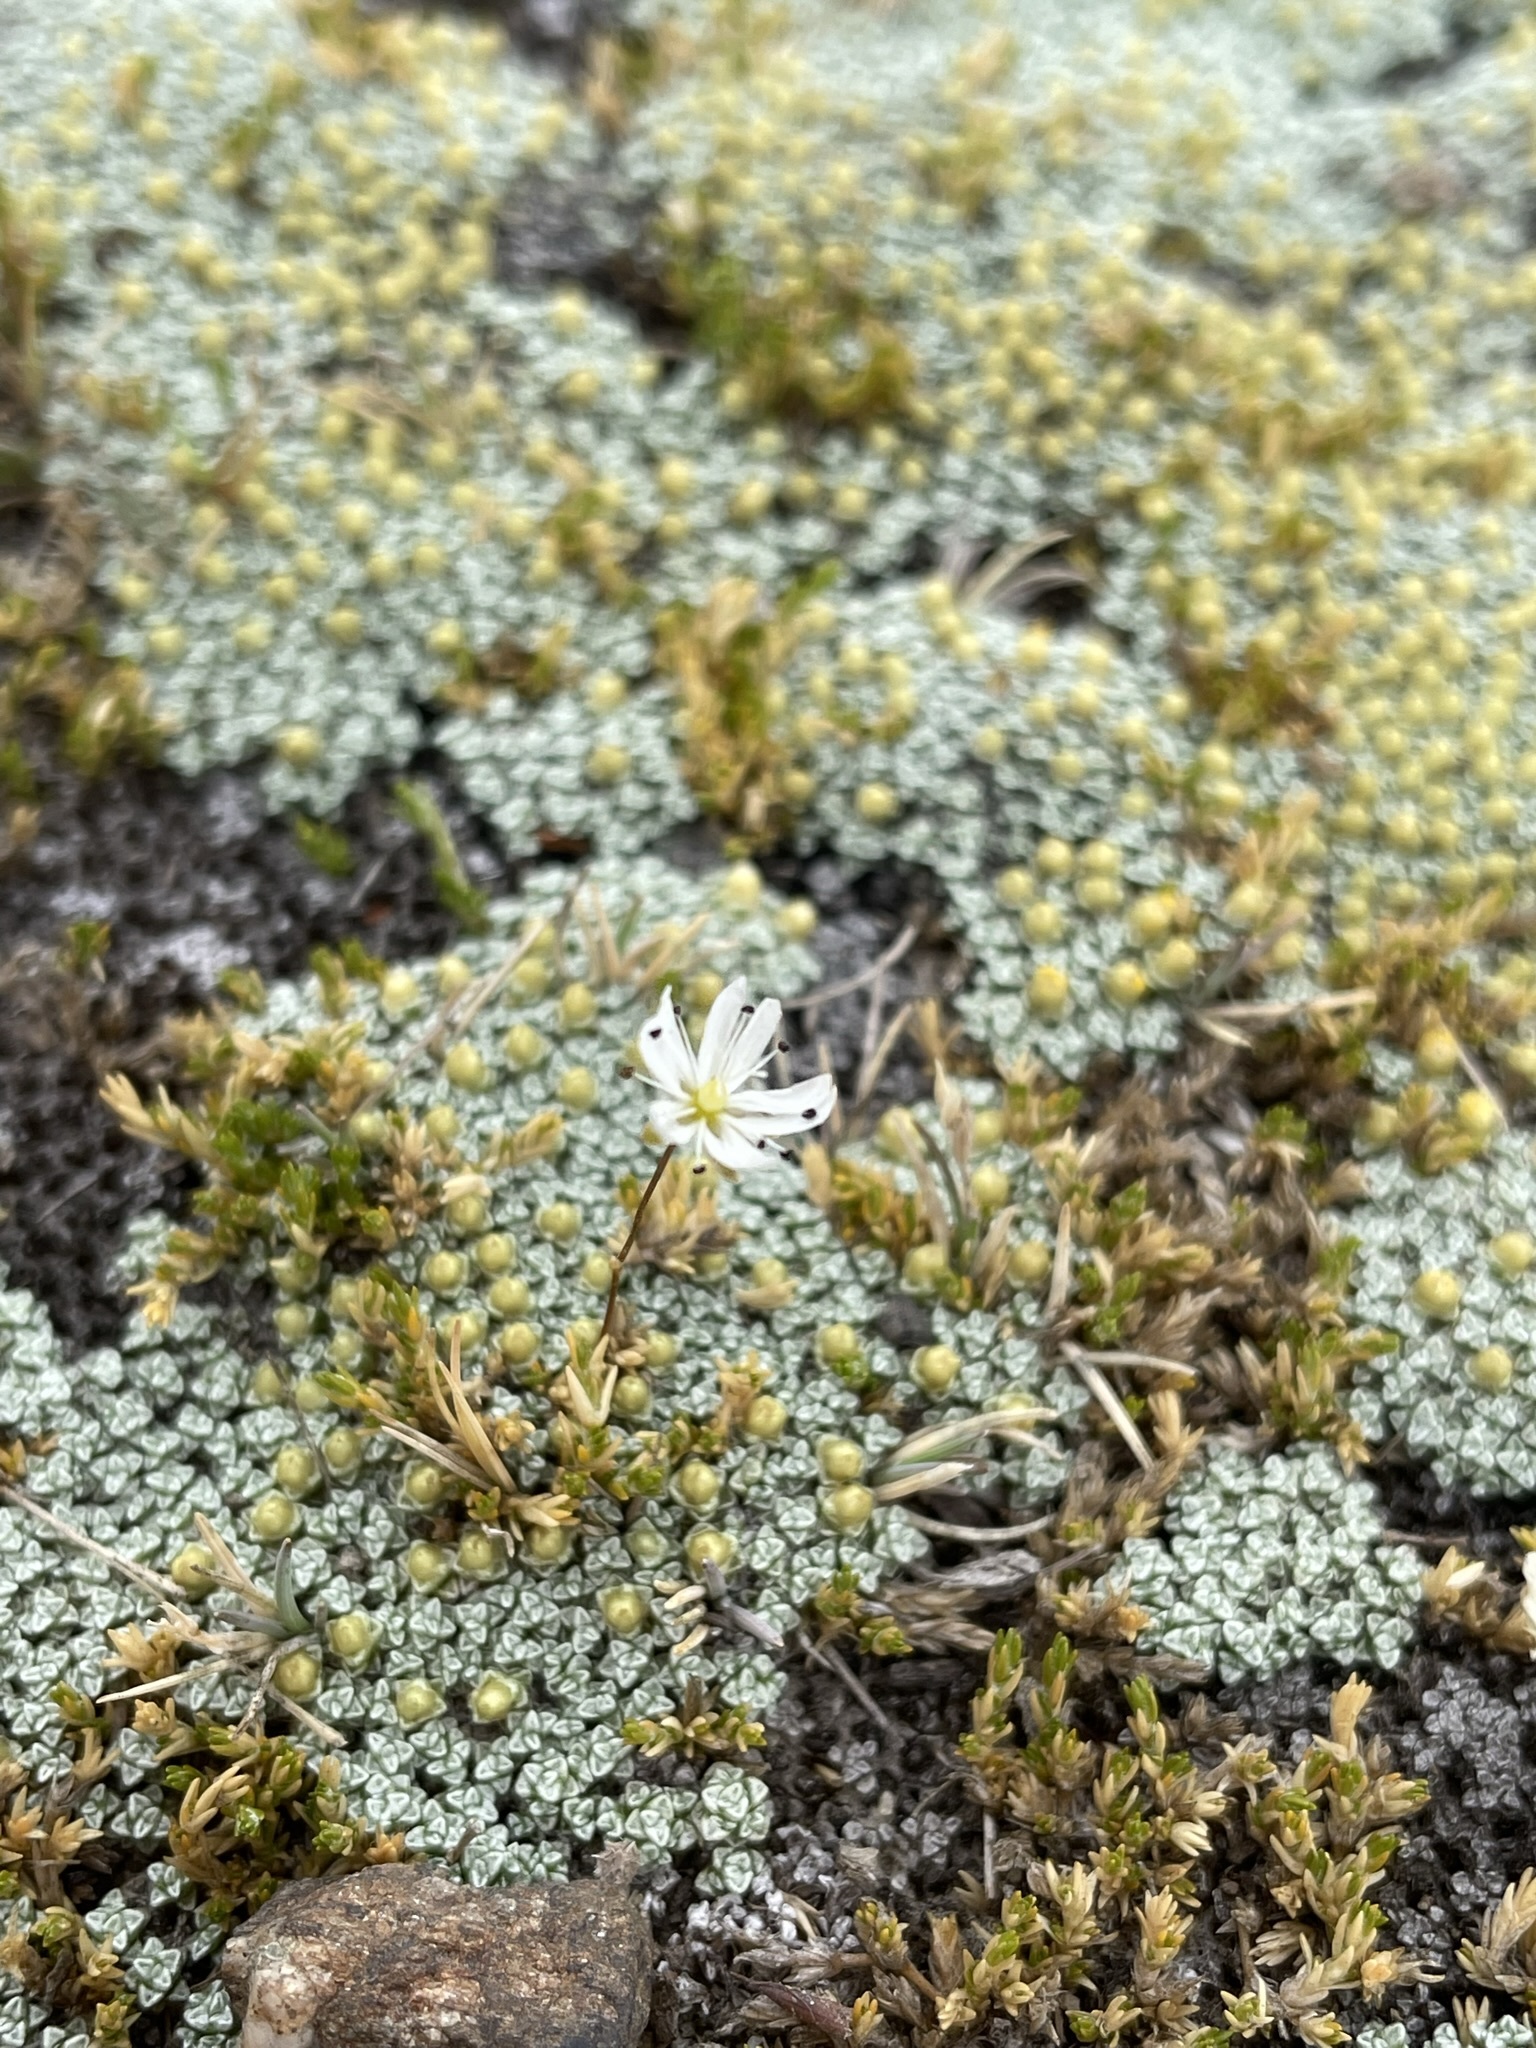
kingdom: Plantae
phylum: Tracheophyta
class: Magnoliopsida
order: Caryophyllales
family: Caryophyllaceae
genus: Stellaria
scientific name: Stellaria gracilenta
